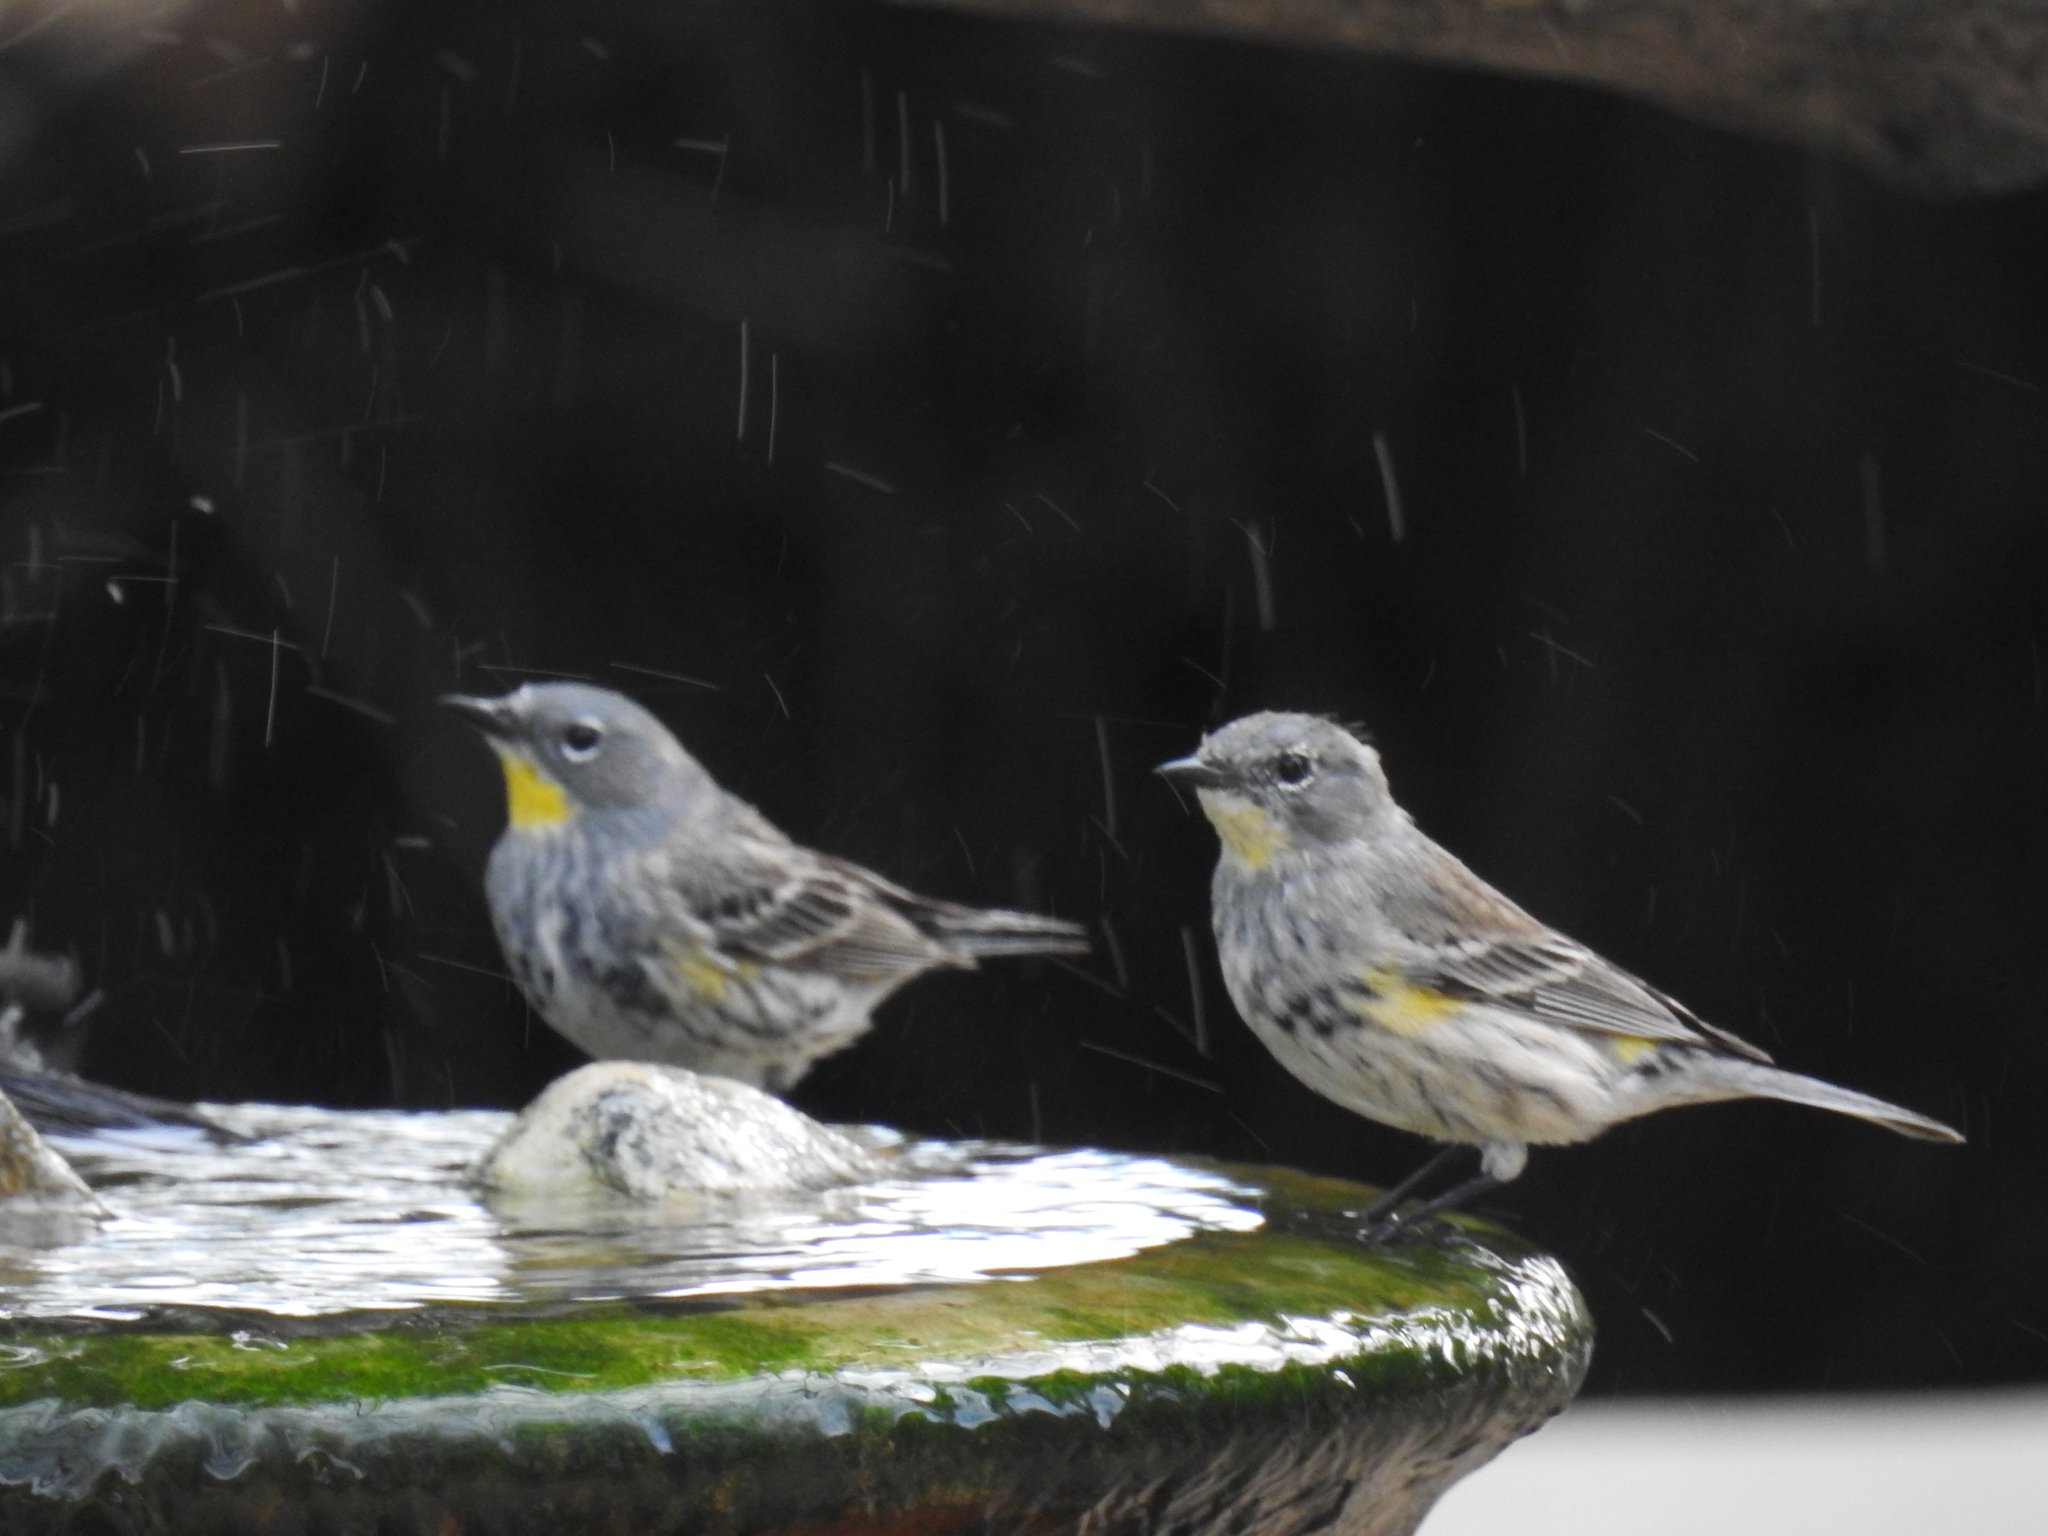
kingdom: Animalia
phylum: Chordata
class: Aves
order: Passeriformes
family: Parulidae
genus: Setophaga
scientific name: Setophaga coronata
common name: Myrtle warbler
